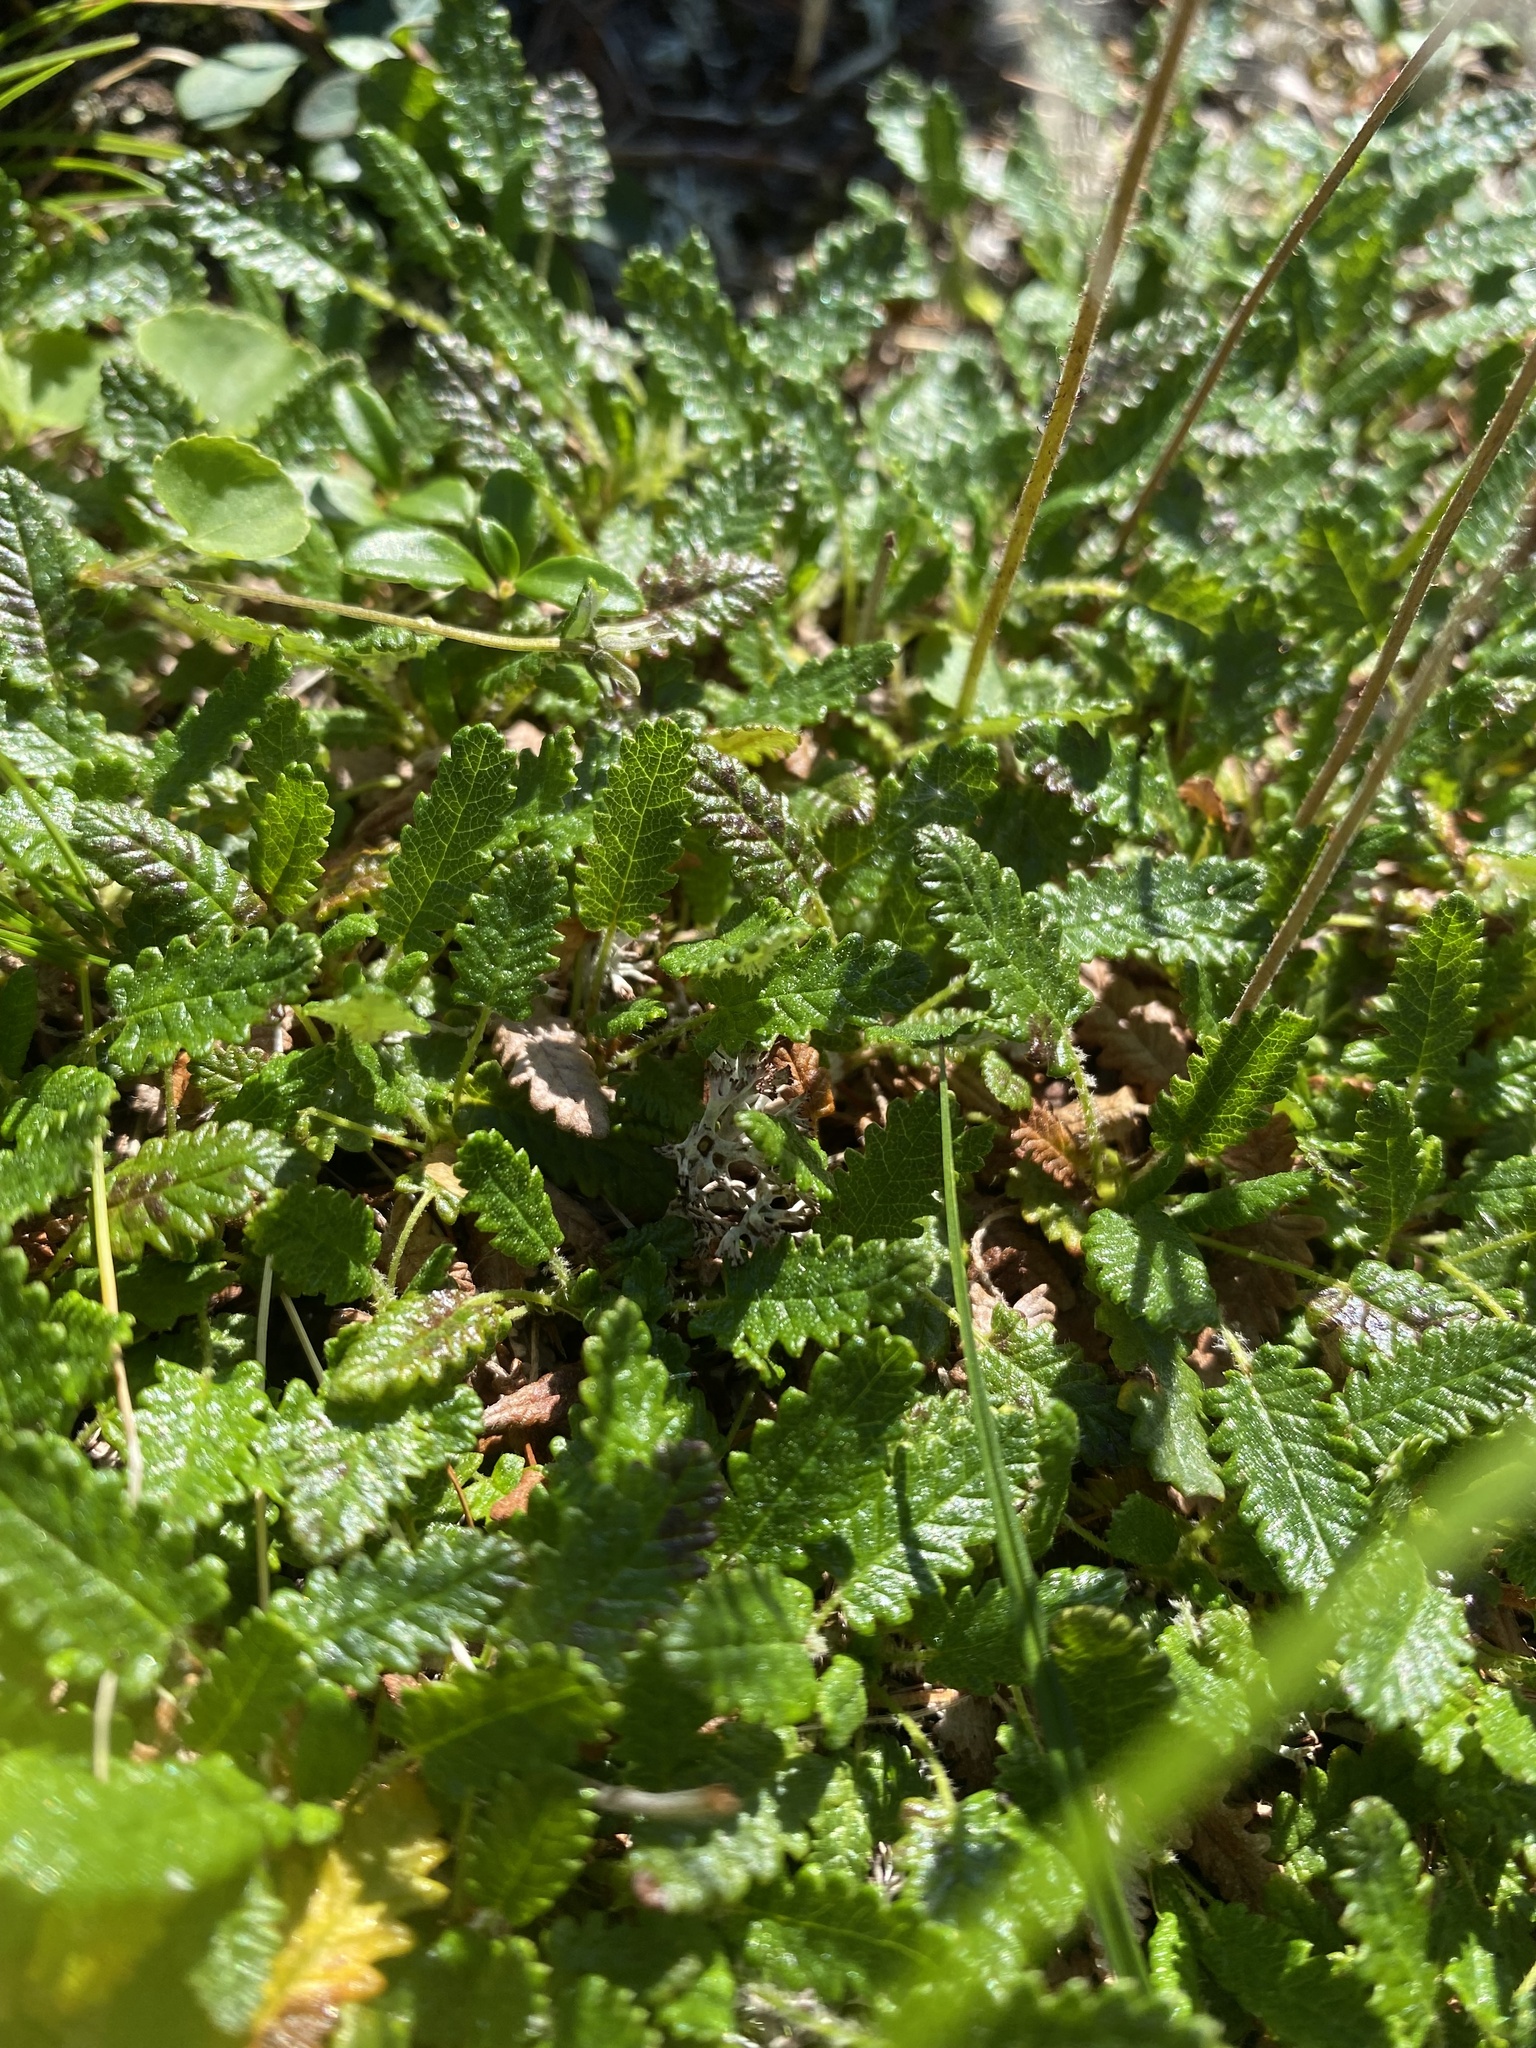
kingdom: Plantae
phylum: Tracheophyta
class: Magnoliopsida
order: Rosales
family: Rosaceae
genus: Dryas
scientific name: Dryas octopetala
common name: Eight-petal mountain-avens
